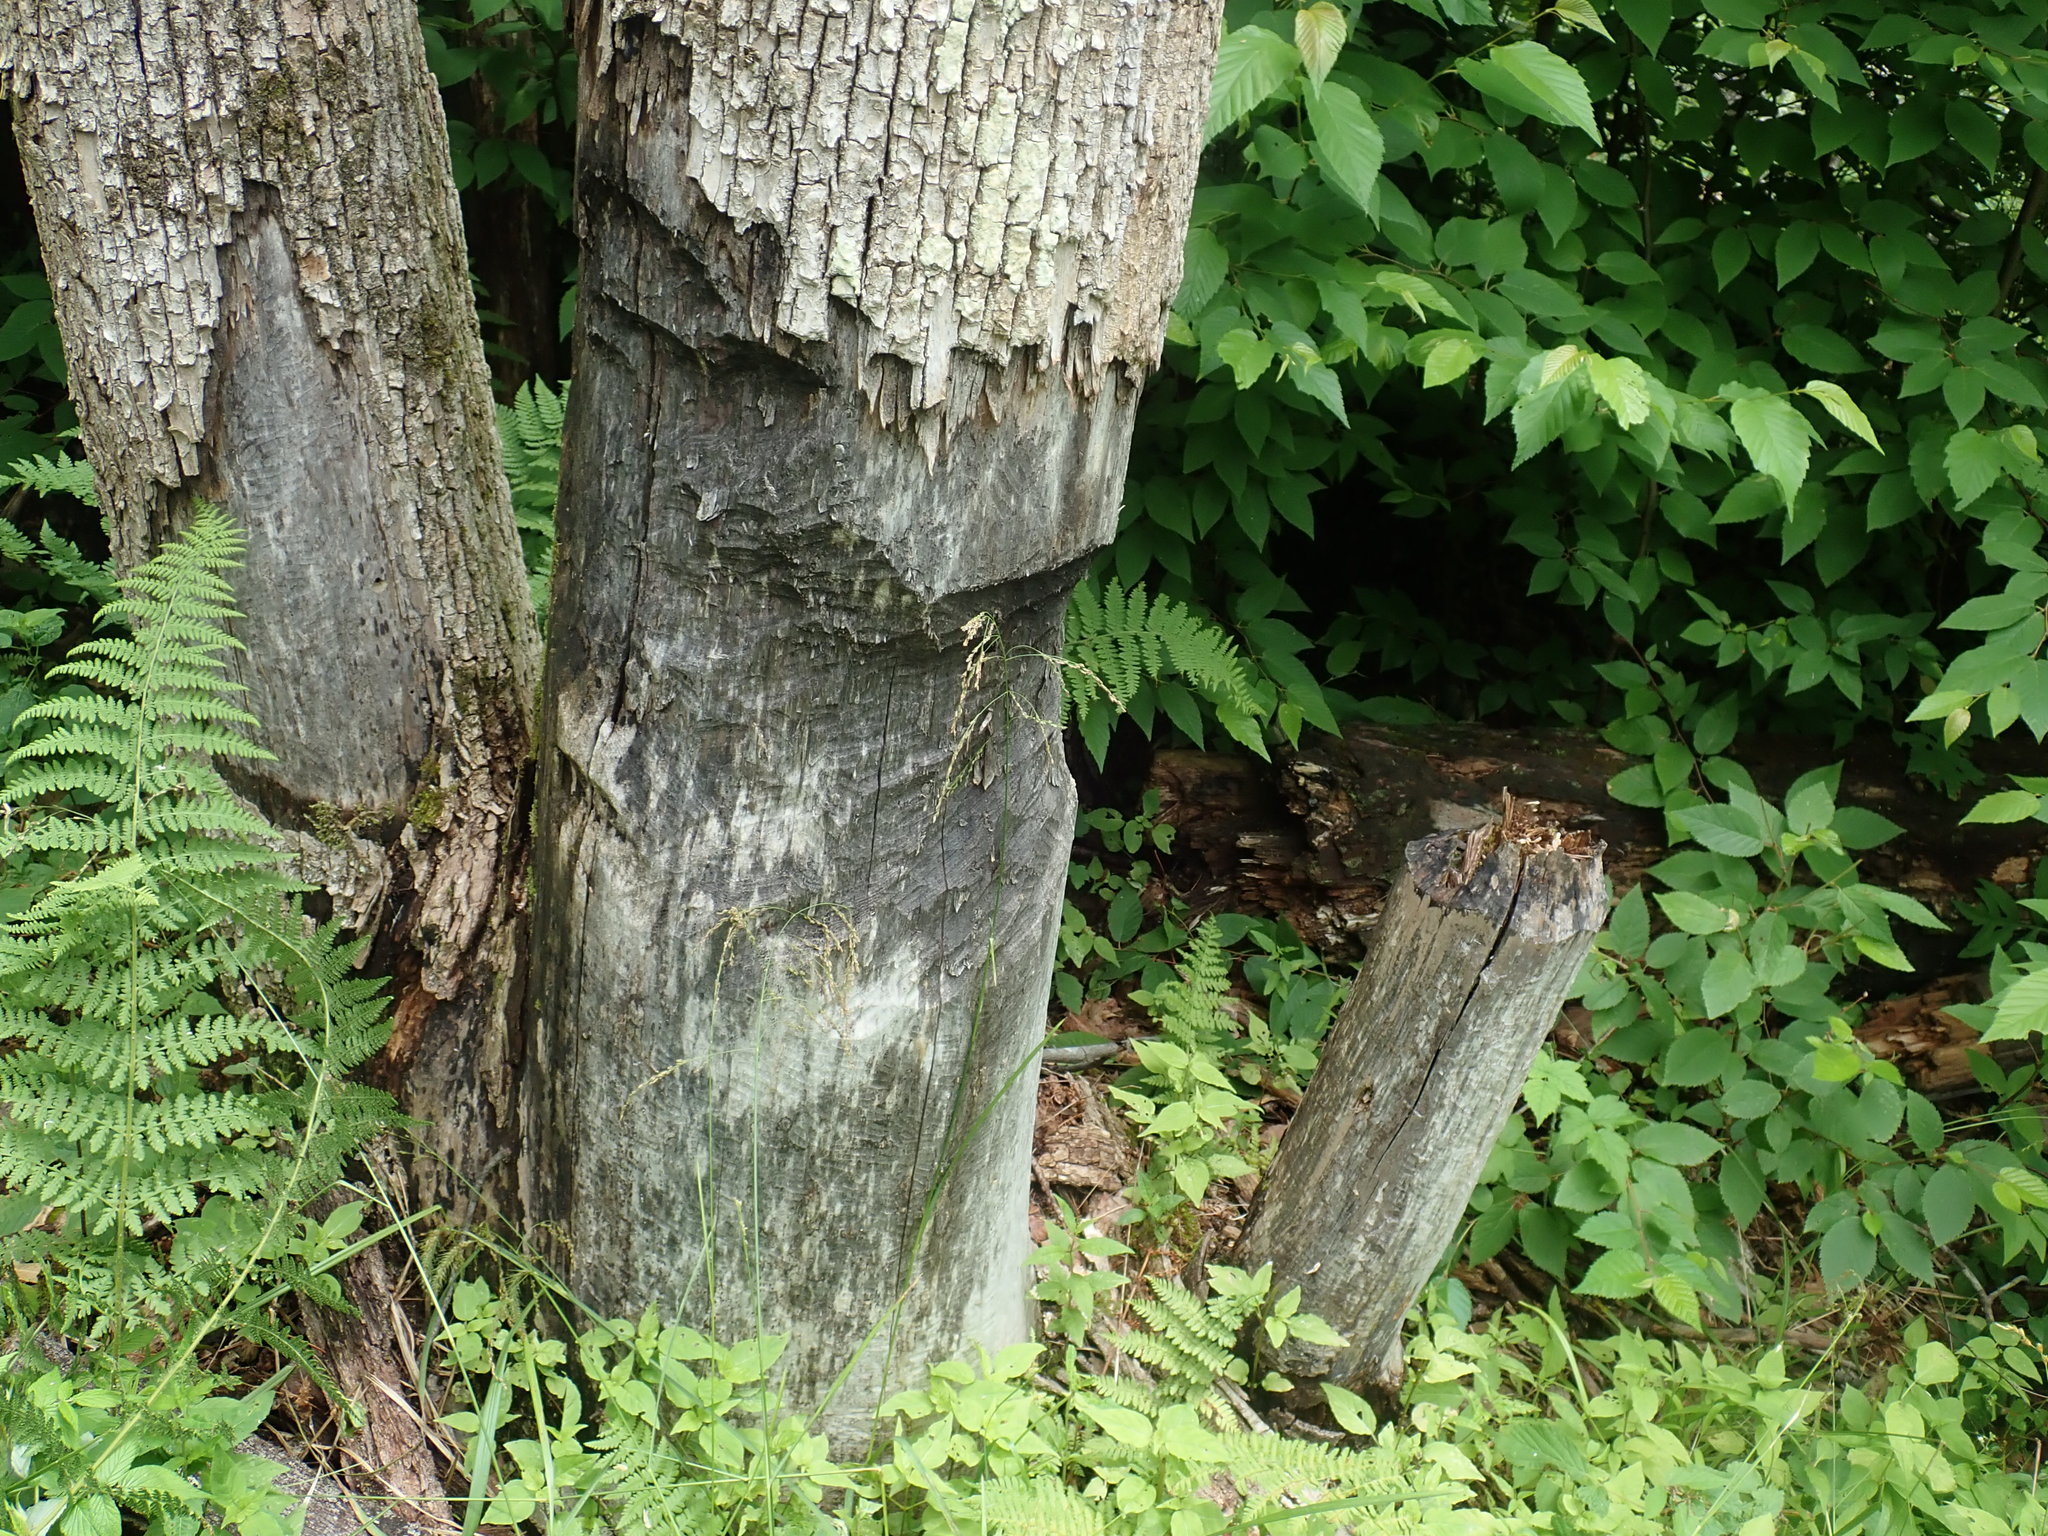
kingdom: Animalia
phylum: Chordata
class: Mammalia
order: Rodentia
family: Castoridae
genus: Castor
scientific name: Castor canadensis
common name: American beaver
